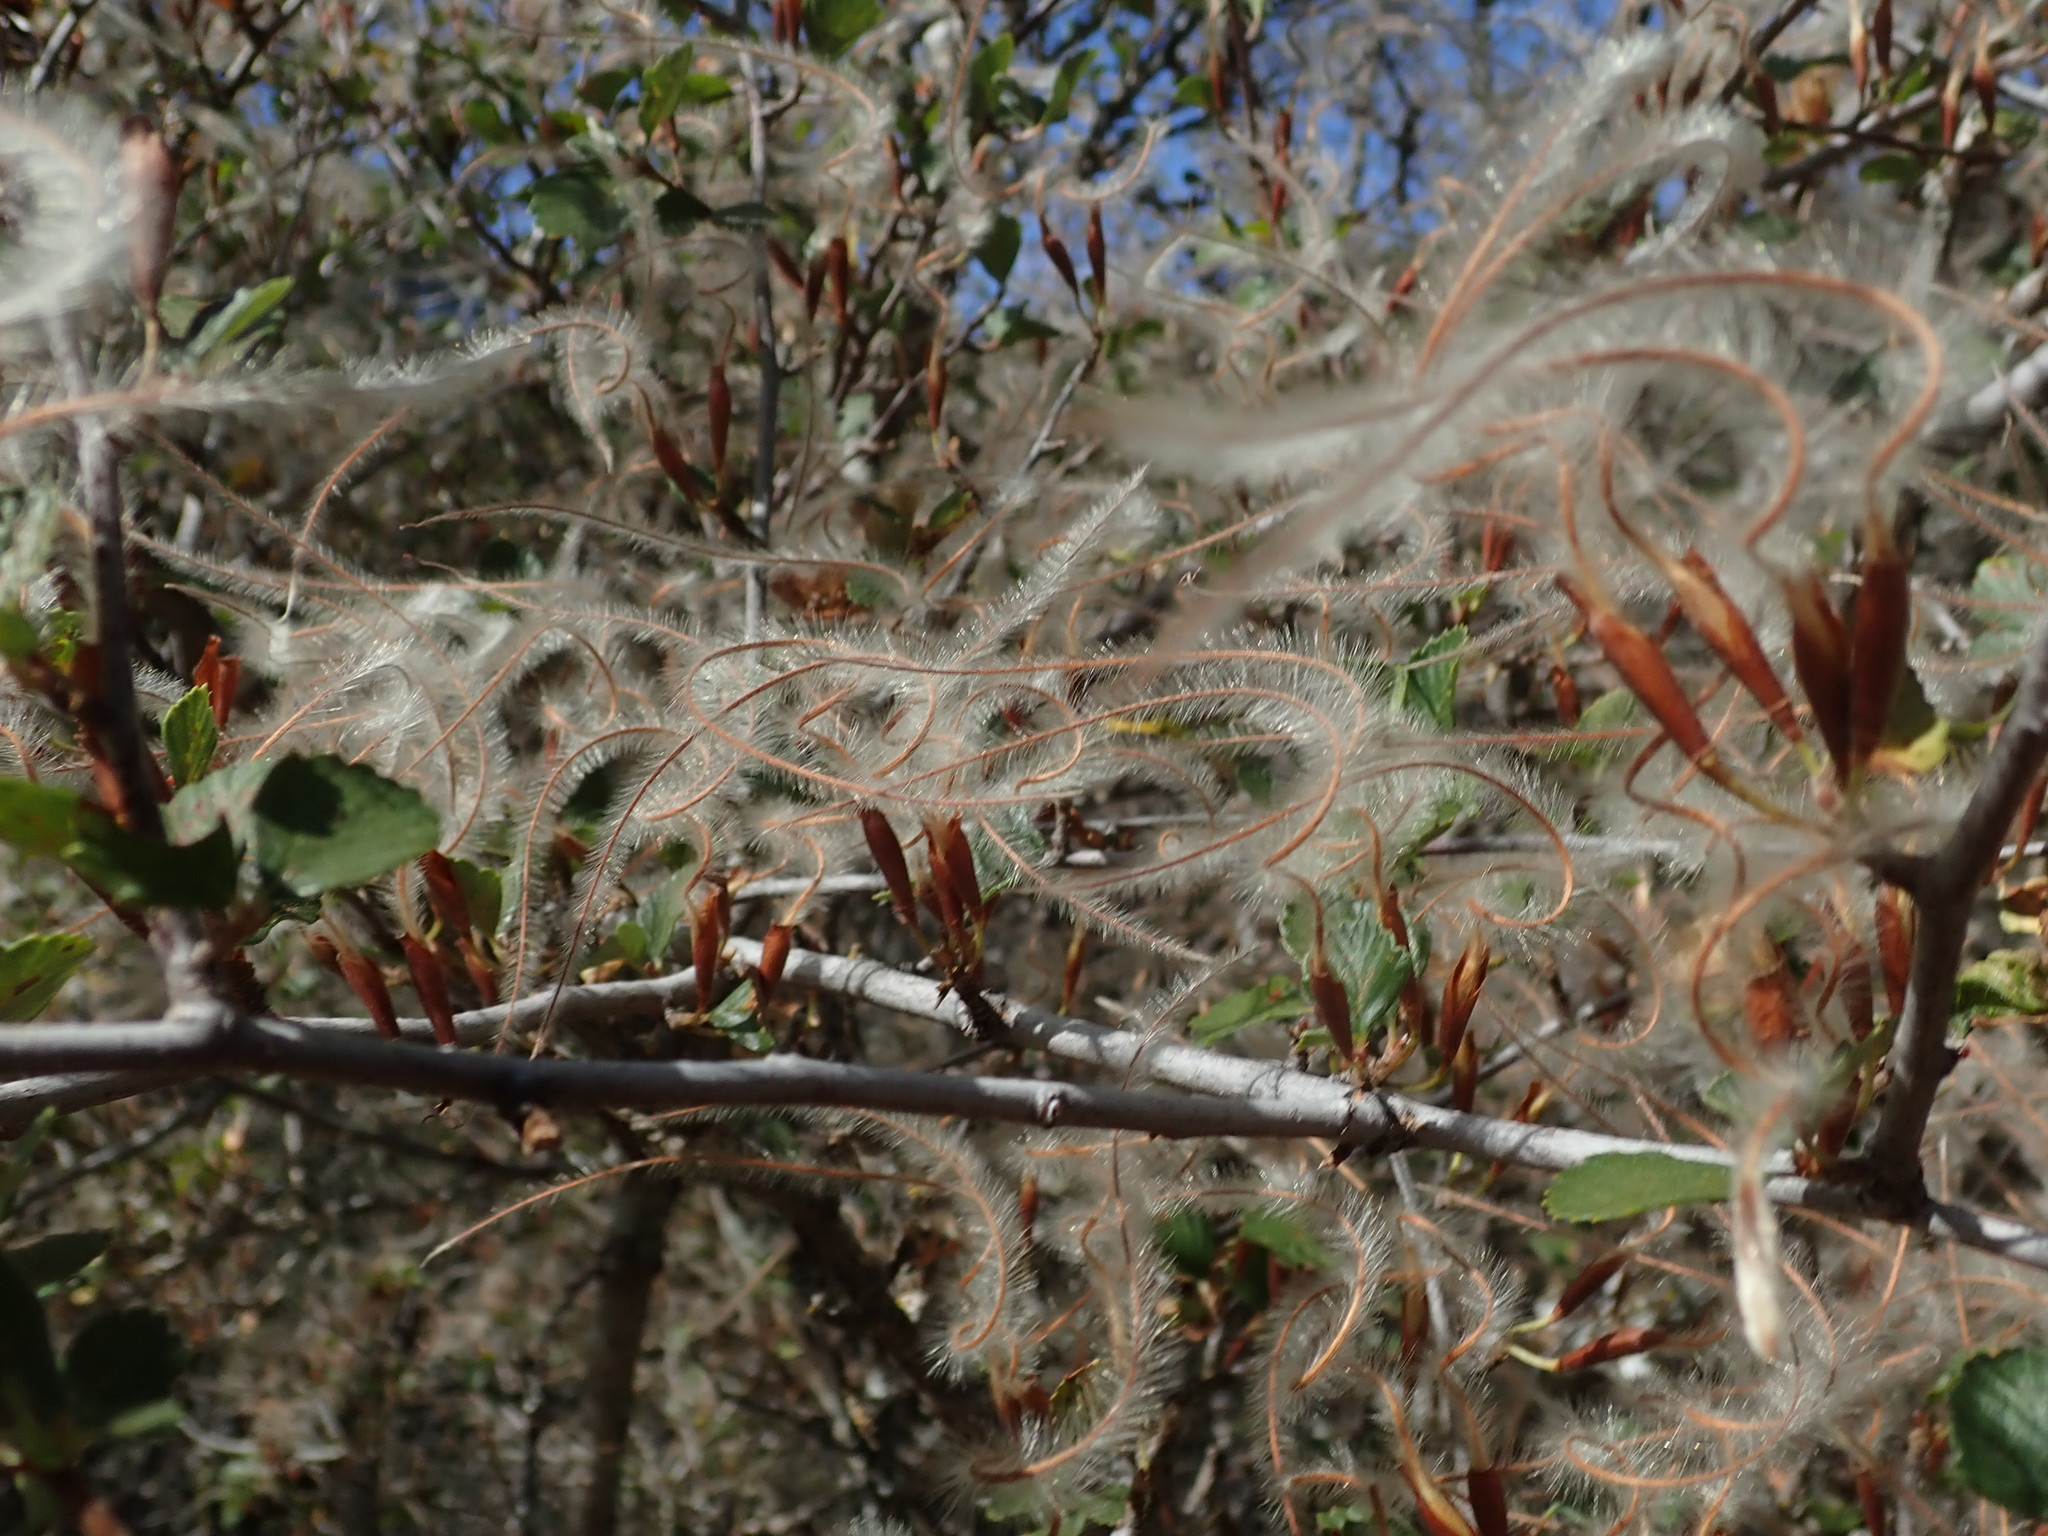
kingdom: Plantae
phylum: Tracheophyta
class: Magnoliopsida
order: Rosales
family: Rosaceae
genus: Cercocarpus
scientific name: Cercocarpus betuloides
